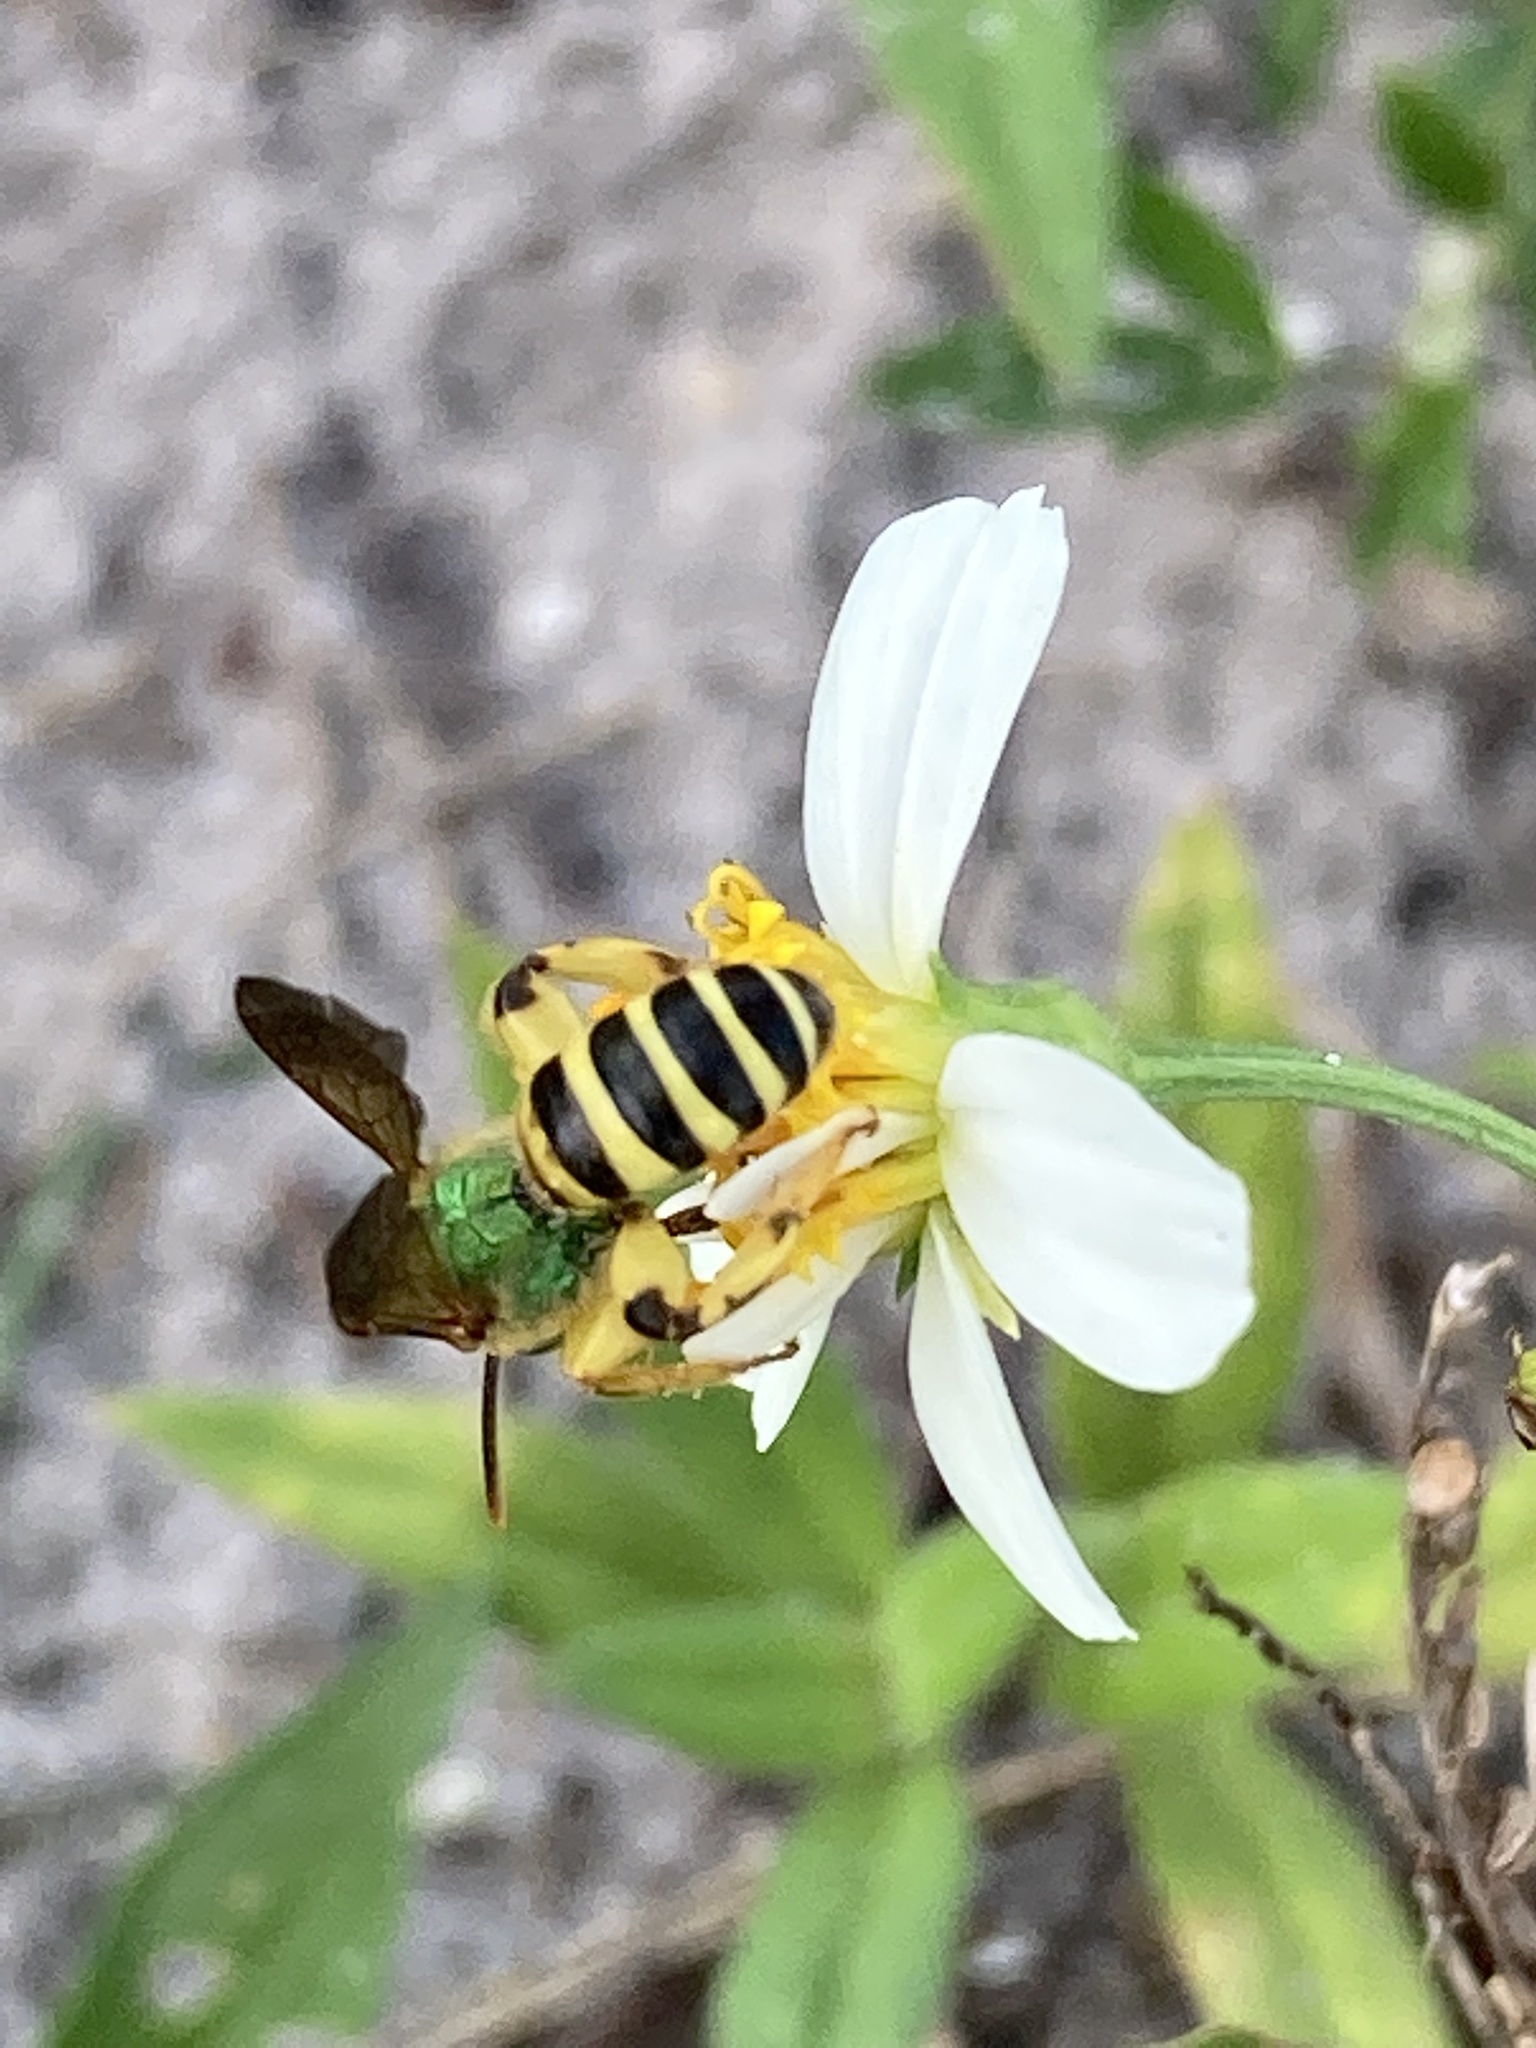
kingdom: Animalia
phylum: Arthropoda
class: Insecta
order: Hymenoptera
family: Halictidae
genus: Agapostemon
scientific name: Agapostemon splendens
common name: Brown-winged striped sweat bee
